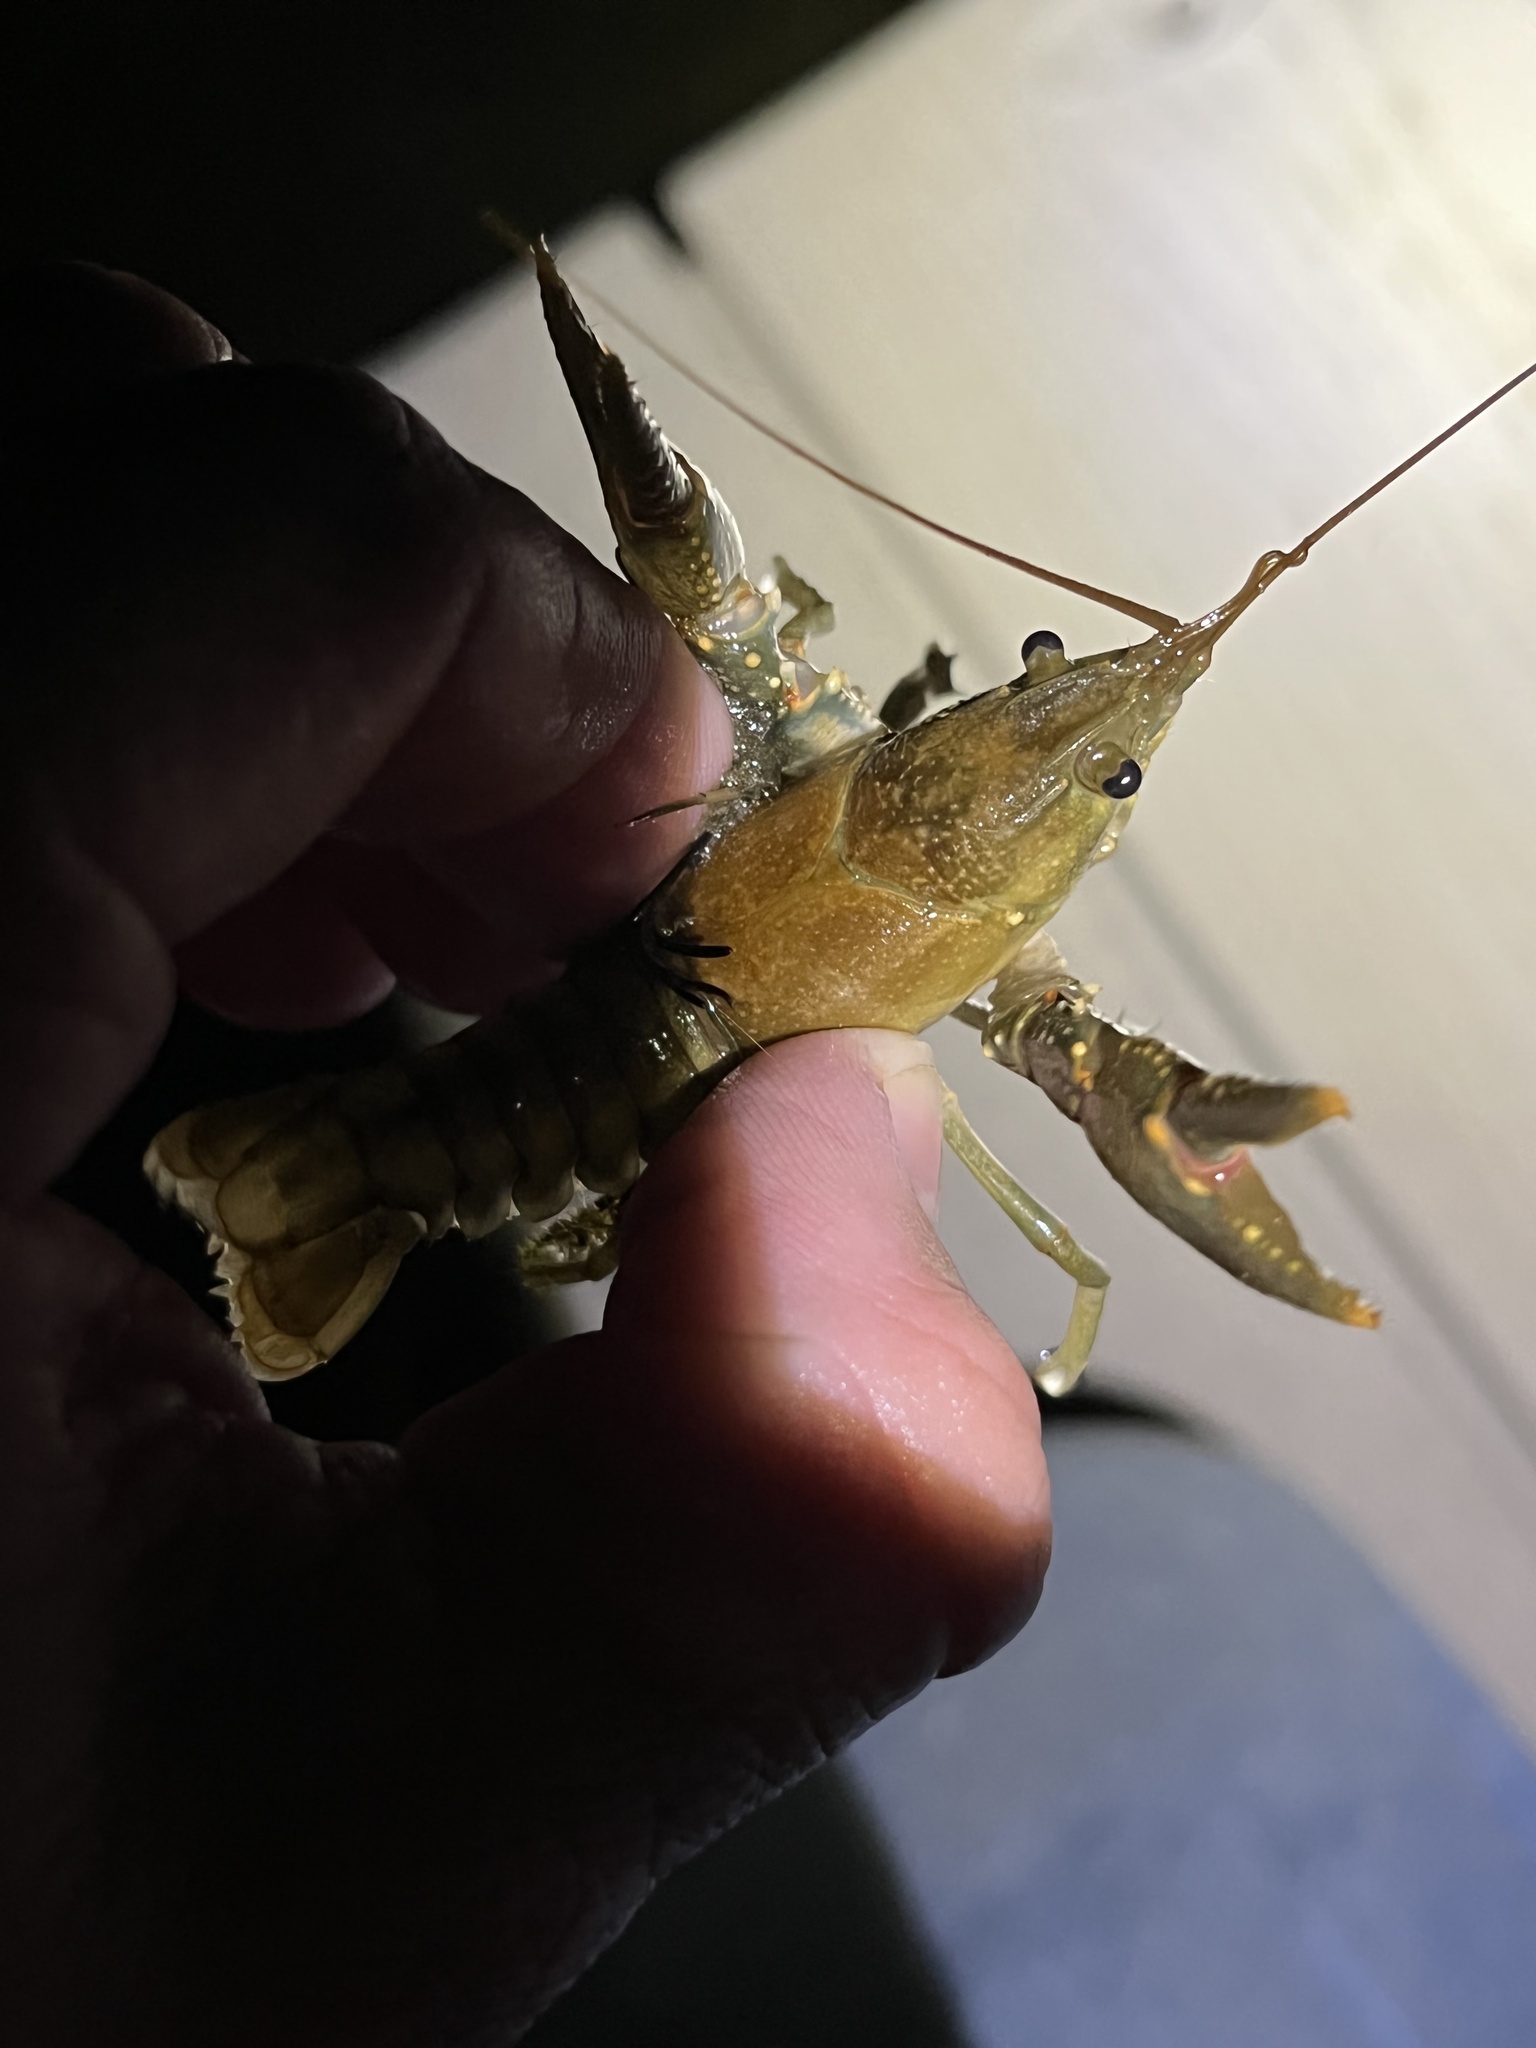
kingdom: Animalia
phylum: Arthropoda
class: Malacostraca
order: Decapoda
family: Cambaridae
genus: Faxonius
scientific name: Faxonius virilis
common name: Virile crayfish
